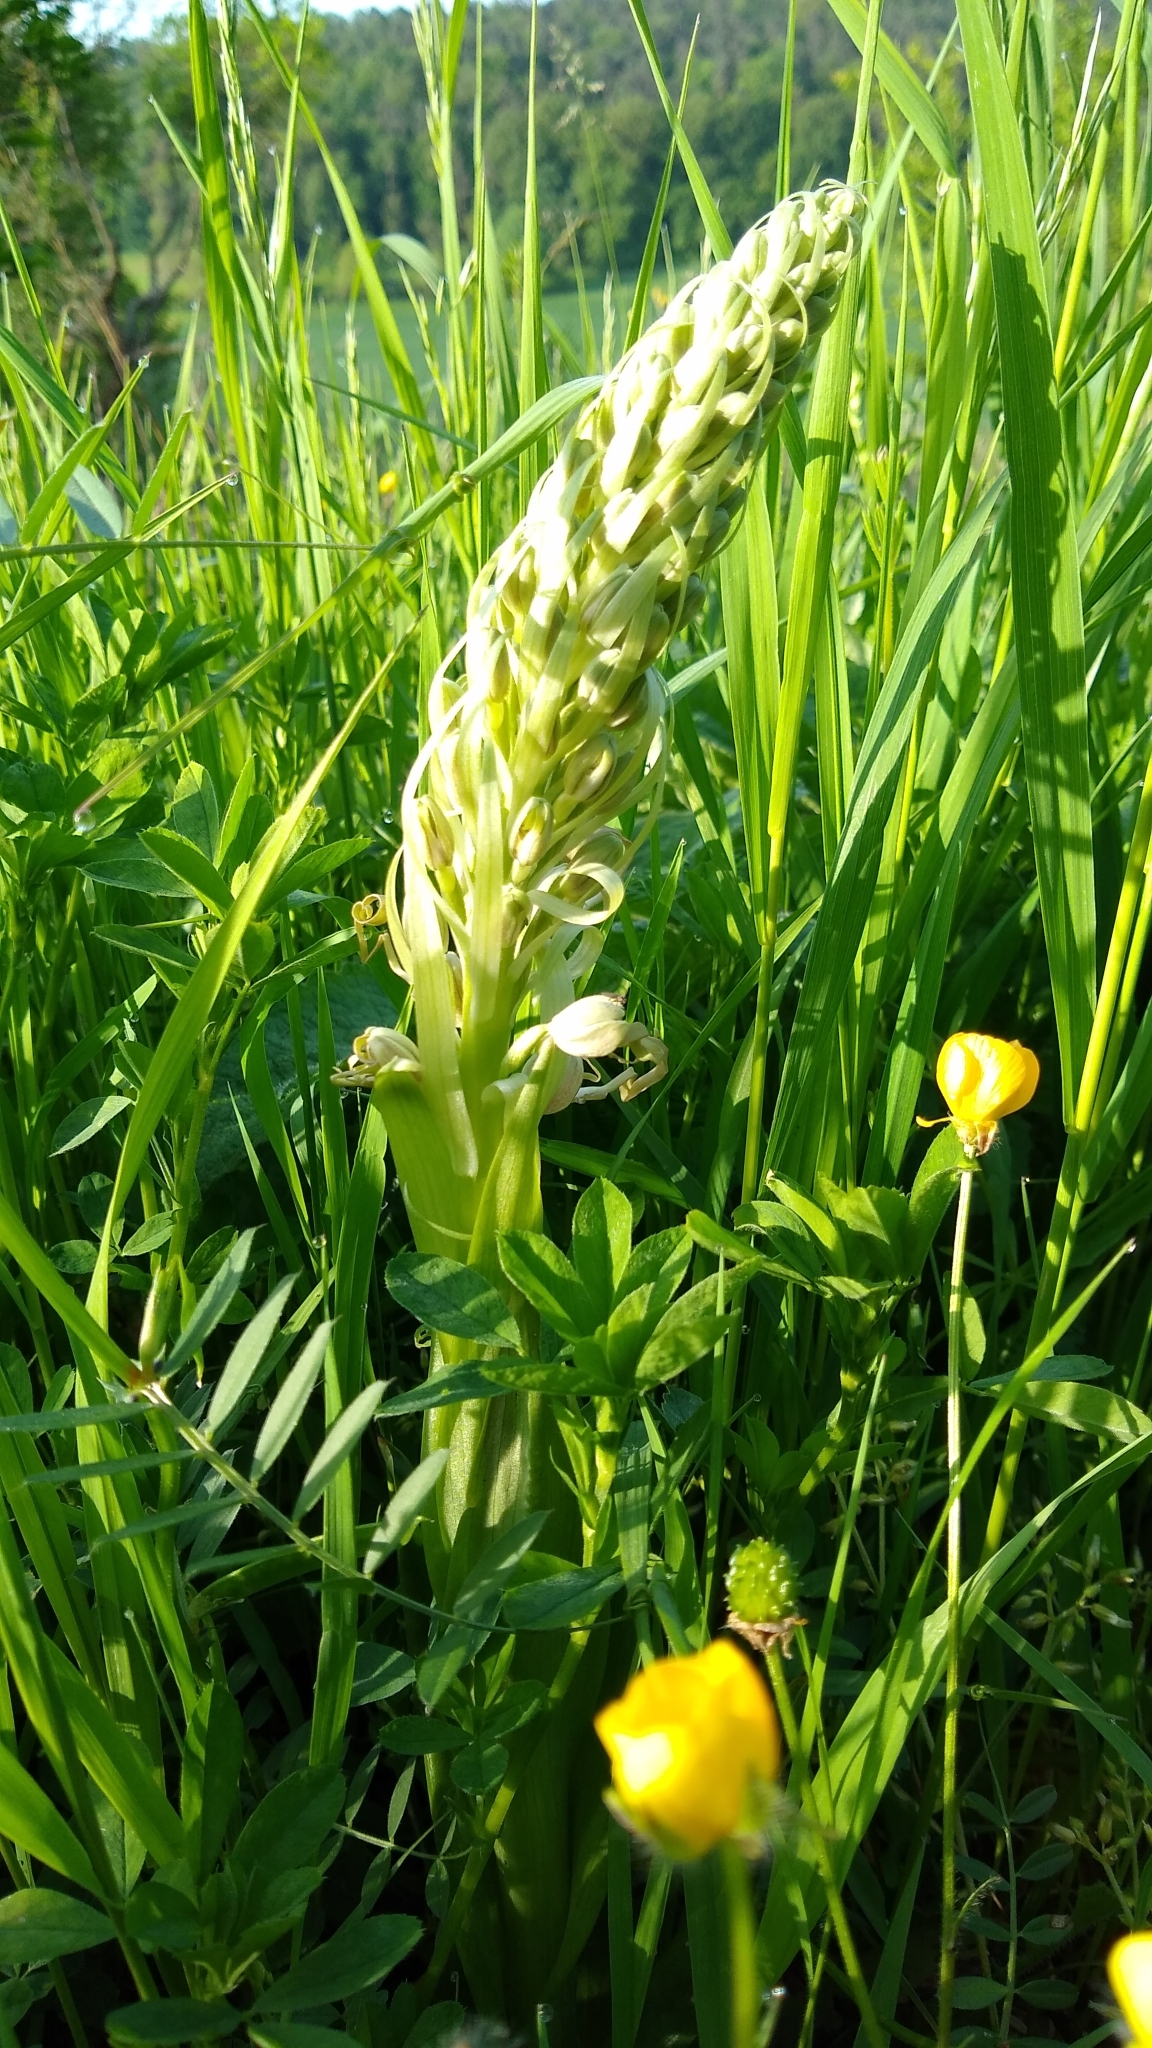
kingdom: Plantae
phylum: Tracheophyta
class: Liliopsida
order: Asparagales
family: Orchidaceae
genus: Himantoglossum
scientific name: Himantoglossum hircinum
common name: Lizard orchid
